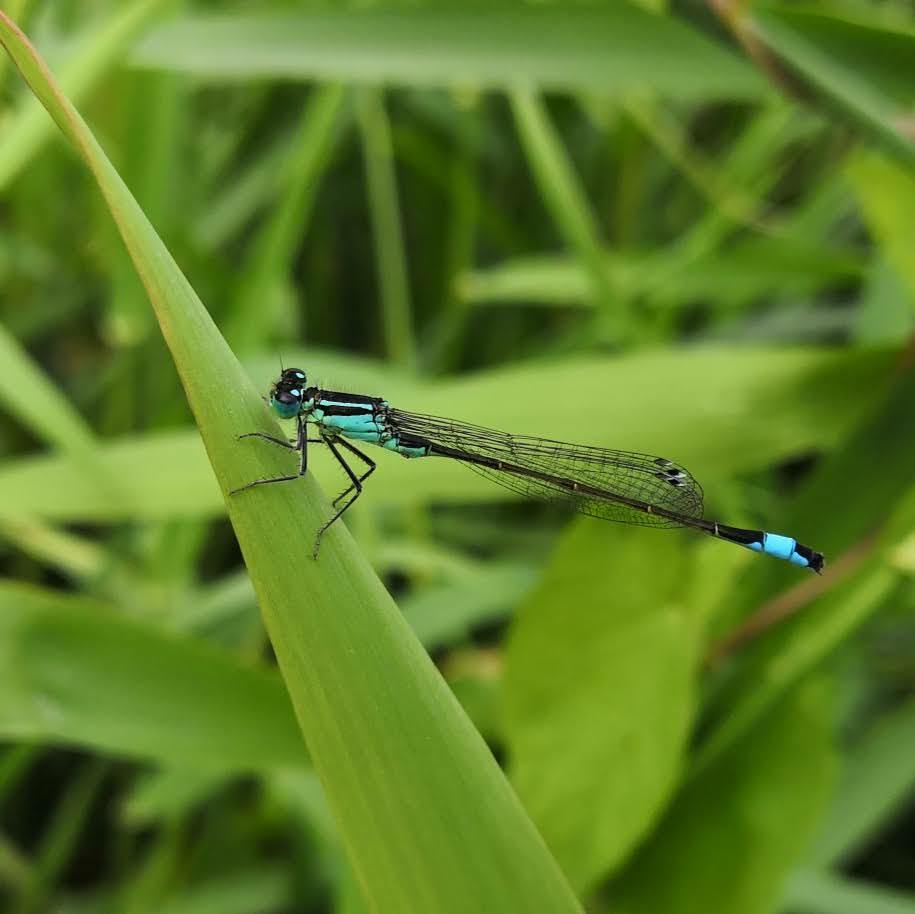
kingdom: Animalia
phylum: Arthropoda
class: Insecta
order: Odonata
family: Coenagrionidae
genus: Ischnura
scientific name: Ischnura elegans
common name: Blue-tailed damselfly
